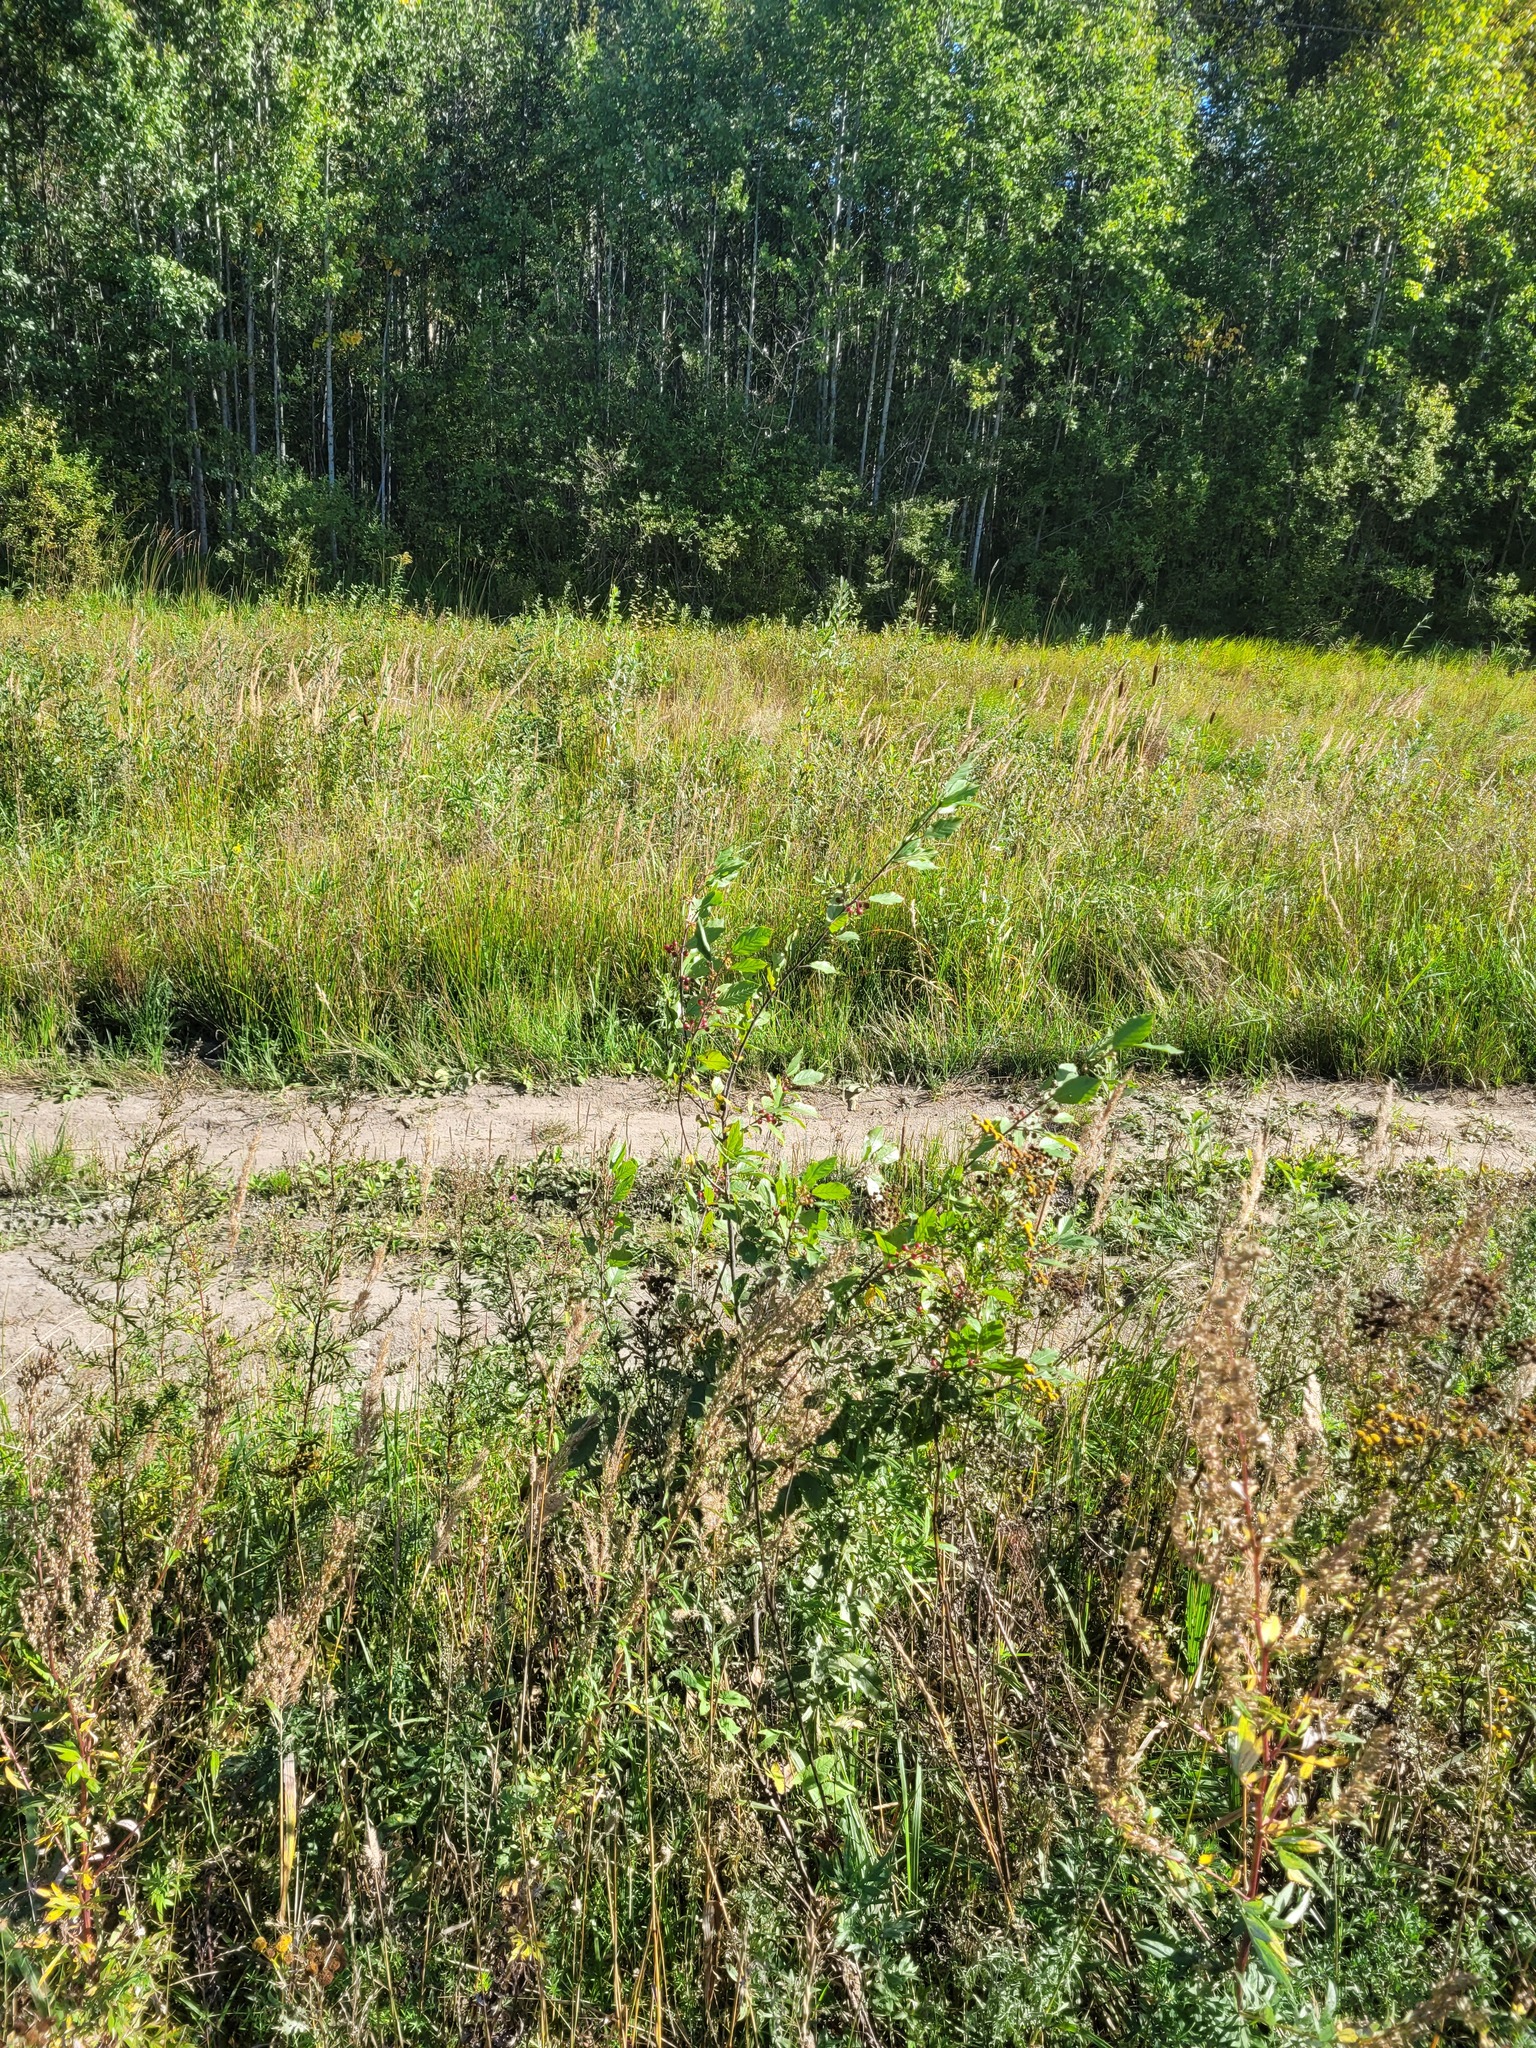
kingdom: Plantae
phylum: Tracheophyta
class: Magnoliopsida
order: Rosales
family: Rhamnaceae
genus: Frangula
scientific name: Frangula alnus
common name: Alder buckthorn
